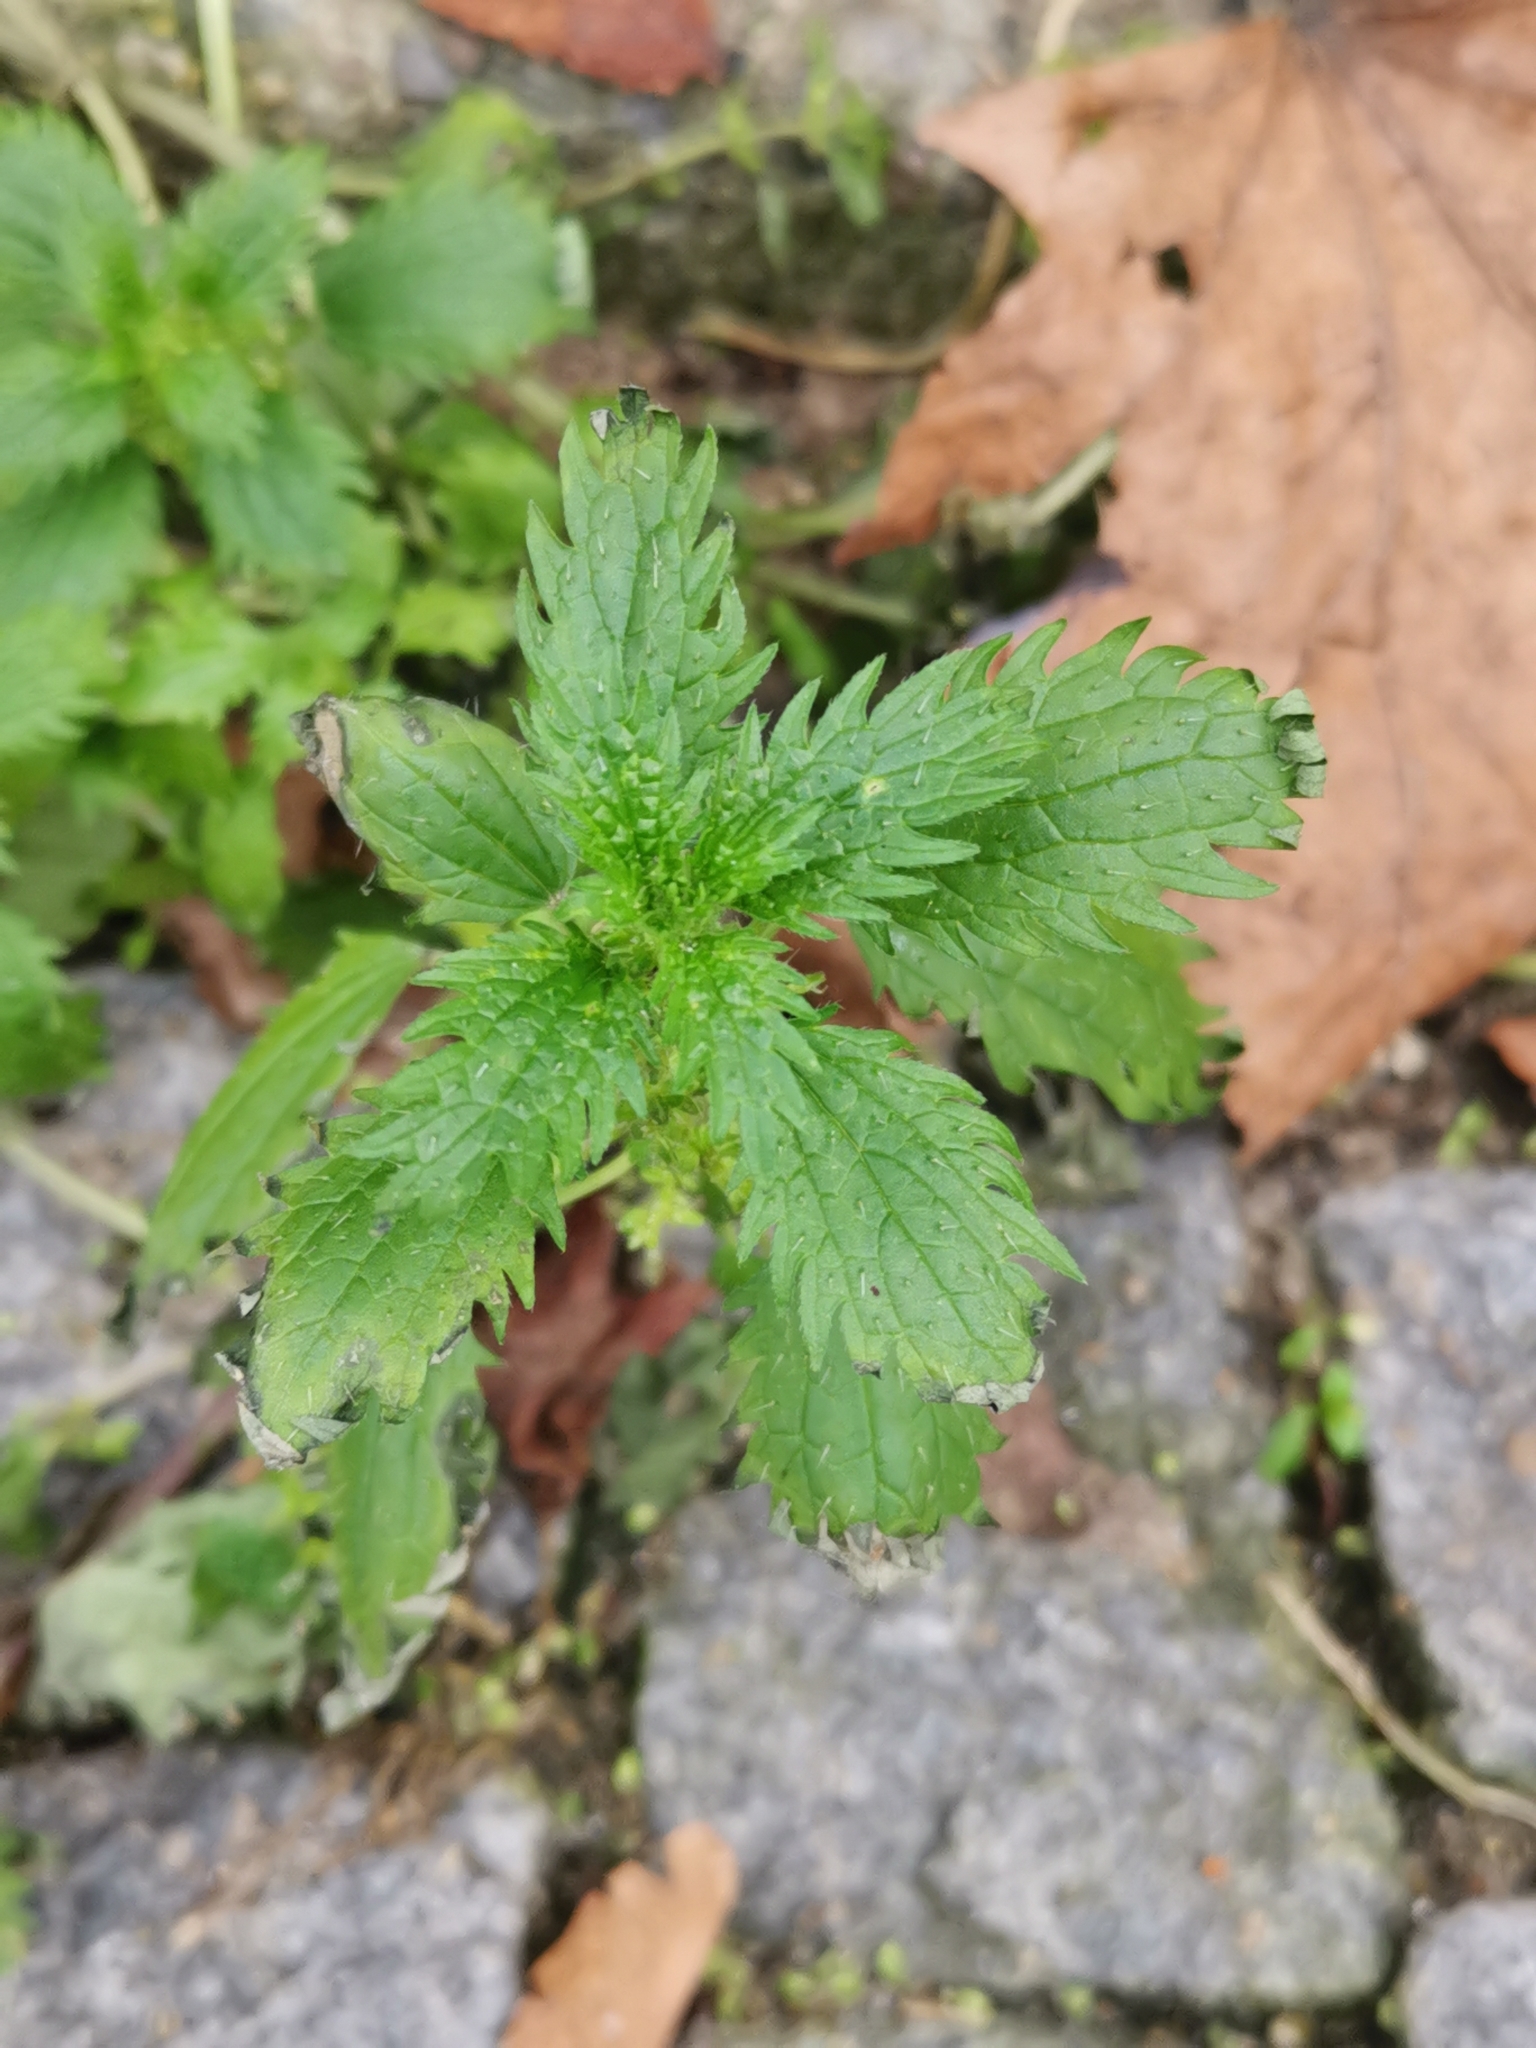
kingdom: Plantae
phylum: Tracheophyta
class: Magnoliopsida
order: Rosales
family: Urticaceae
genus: Urtica
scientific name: Urtica urens
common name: Dwarf nettle
